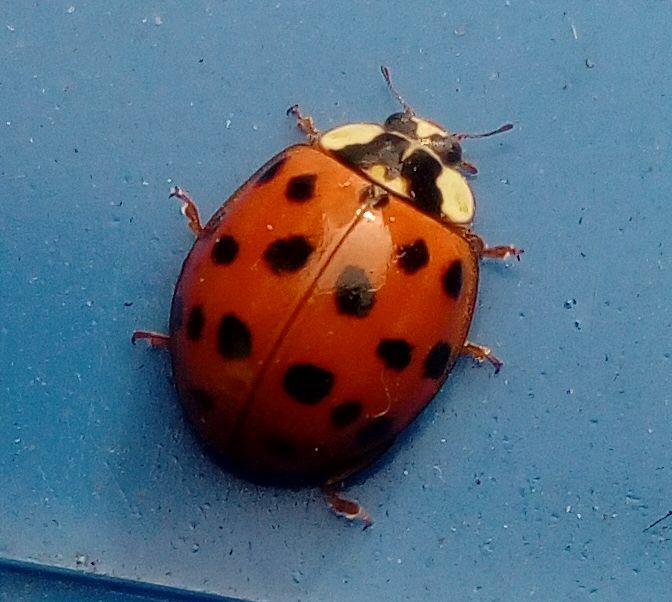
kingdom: Animalia
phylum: Arthropoda
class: Insecta
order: Coleoptera
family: Coccinellidae
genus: Harmonia
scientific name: Harmonia axyridis
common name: Harlequin ladybird
